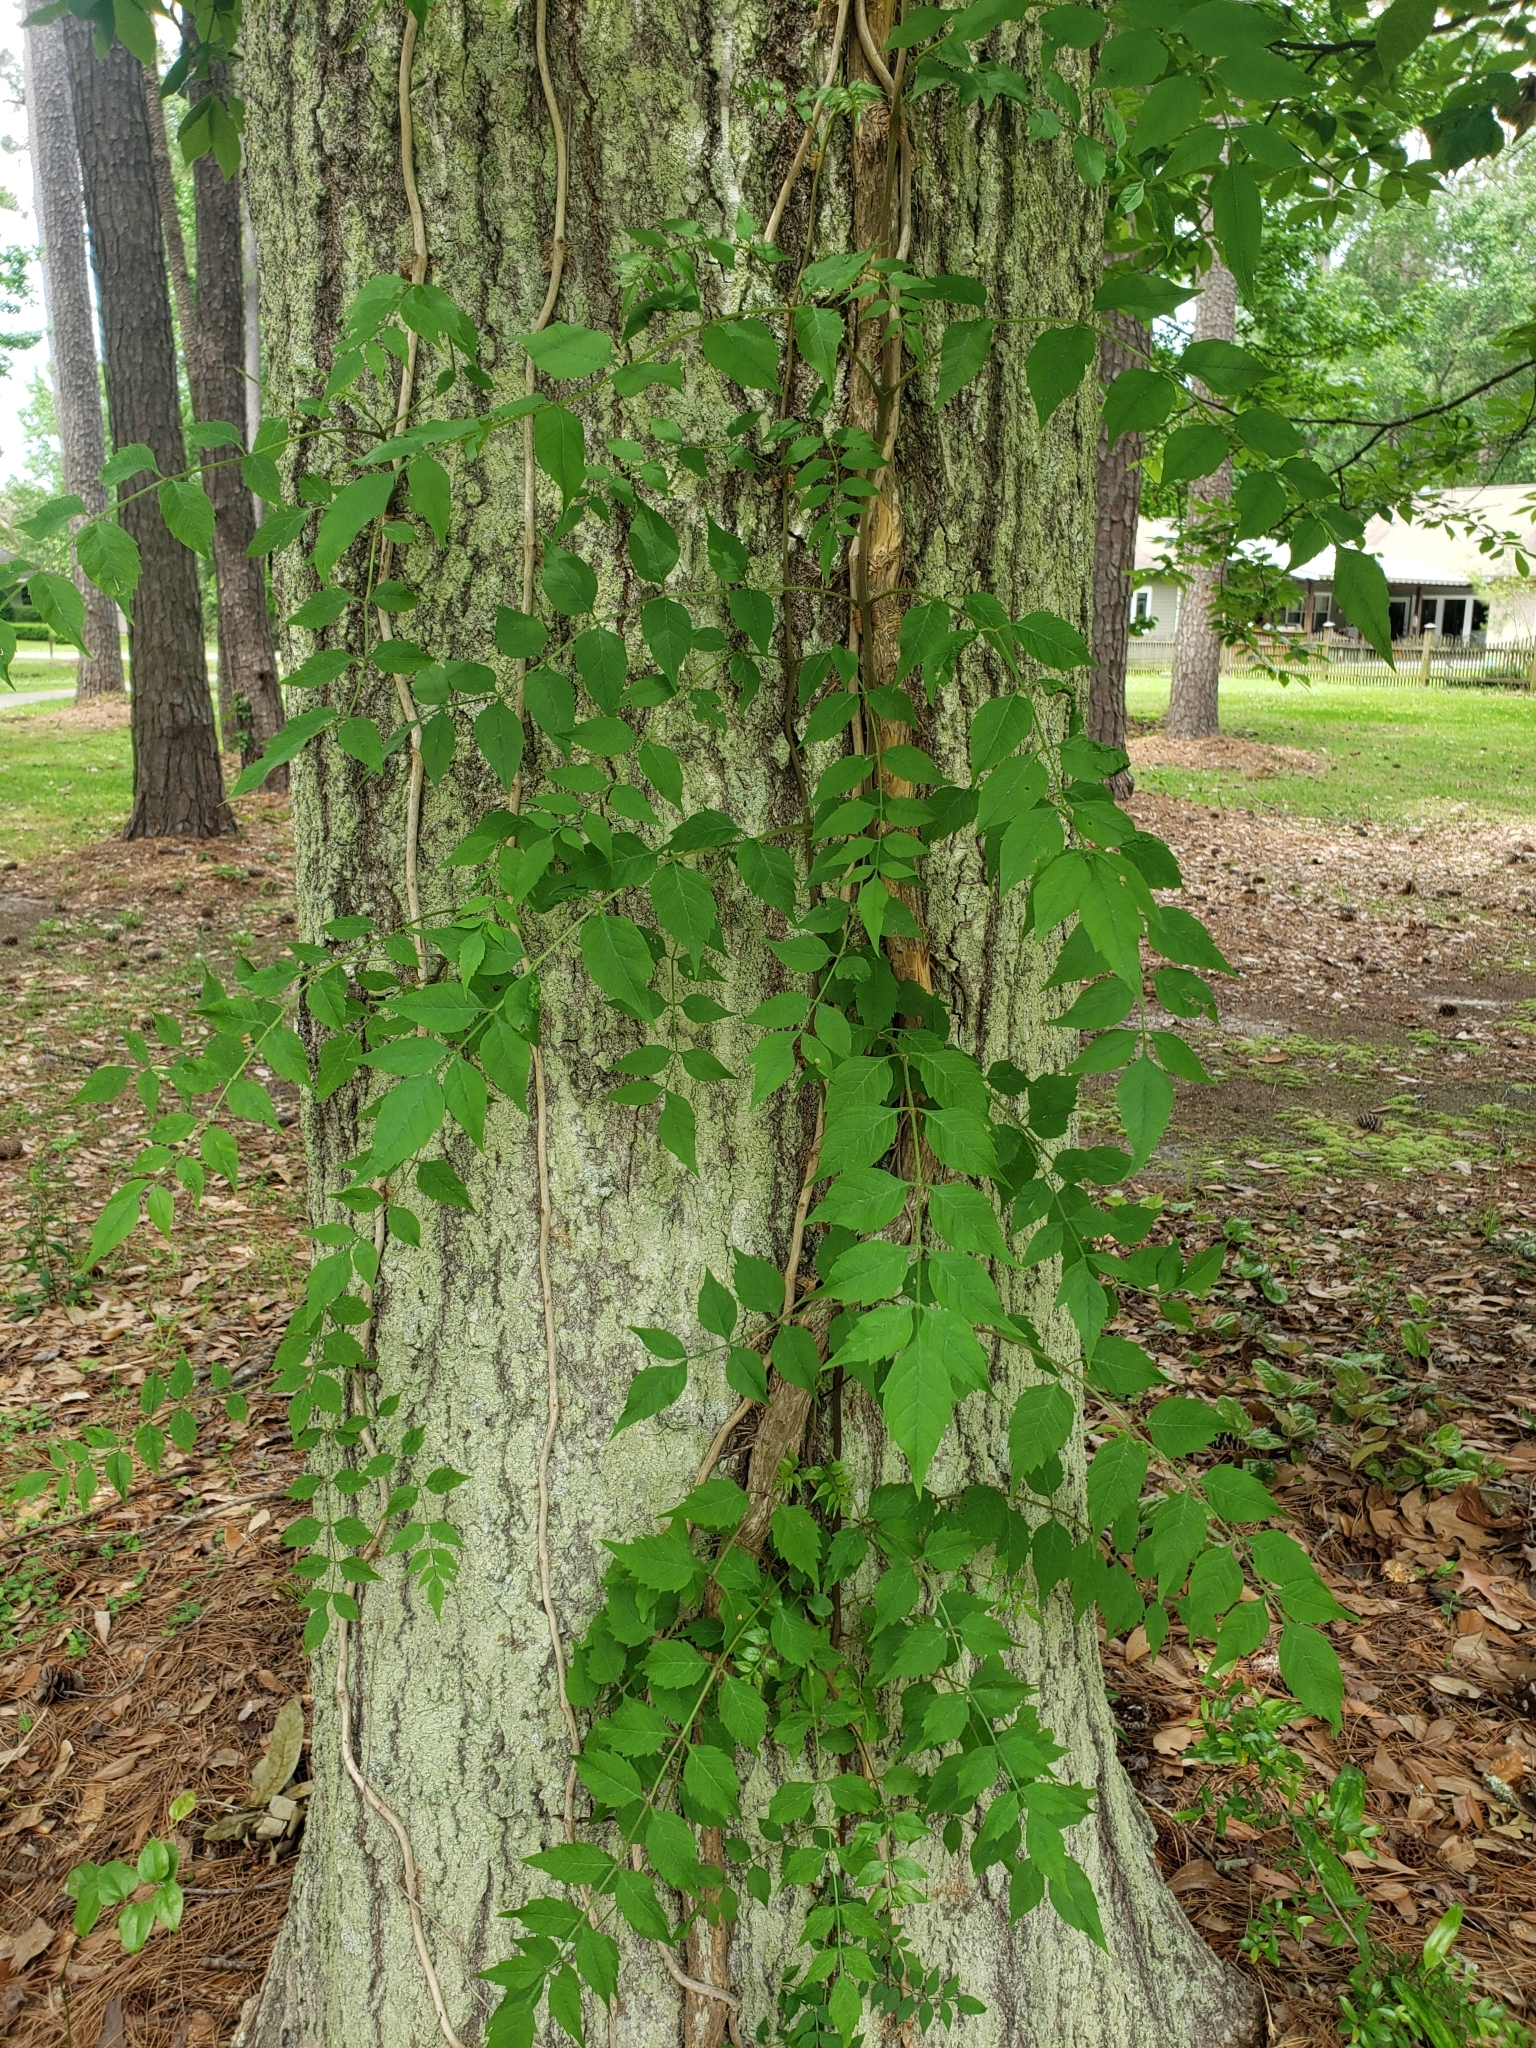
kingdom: Plantae
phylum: Tracheophyta
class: Magnoliopsida
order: Lamiales
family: Bignoniaceae
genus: Campsis
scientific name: Campsis radicans
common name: Trumpet-creeper
